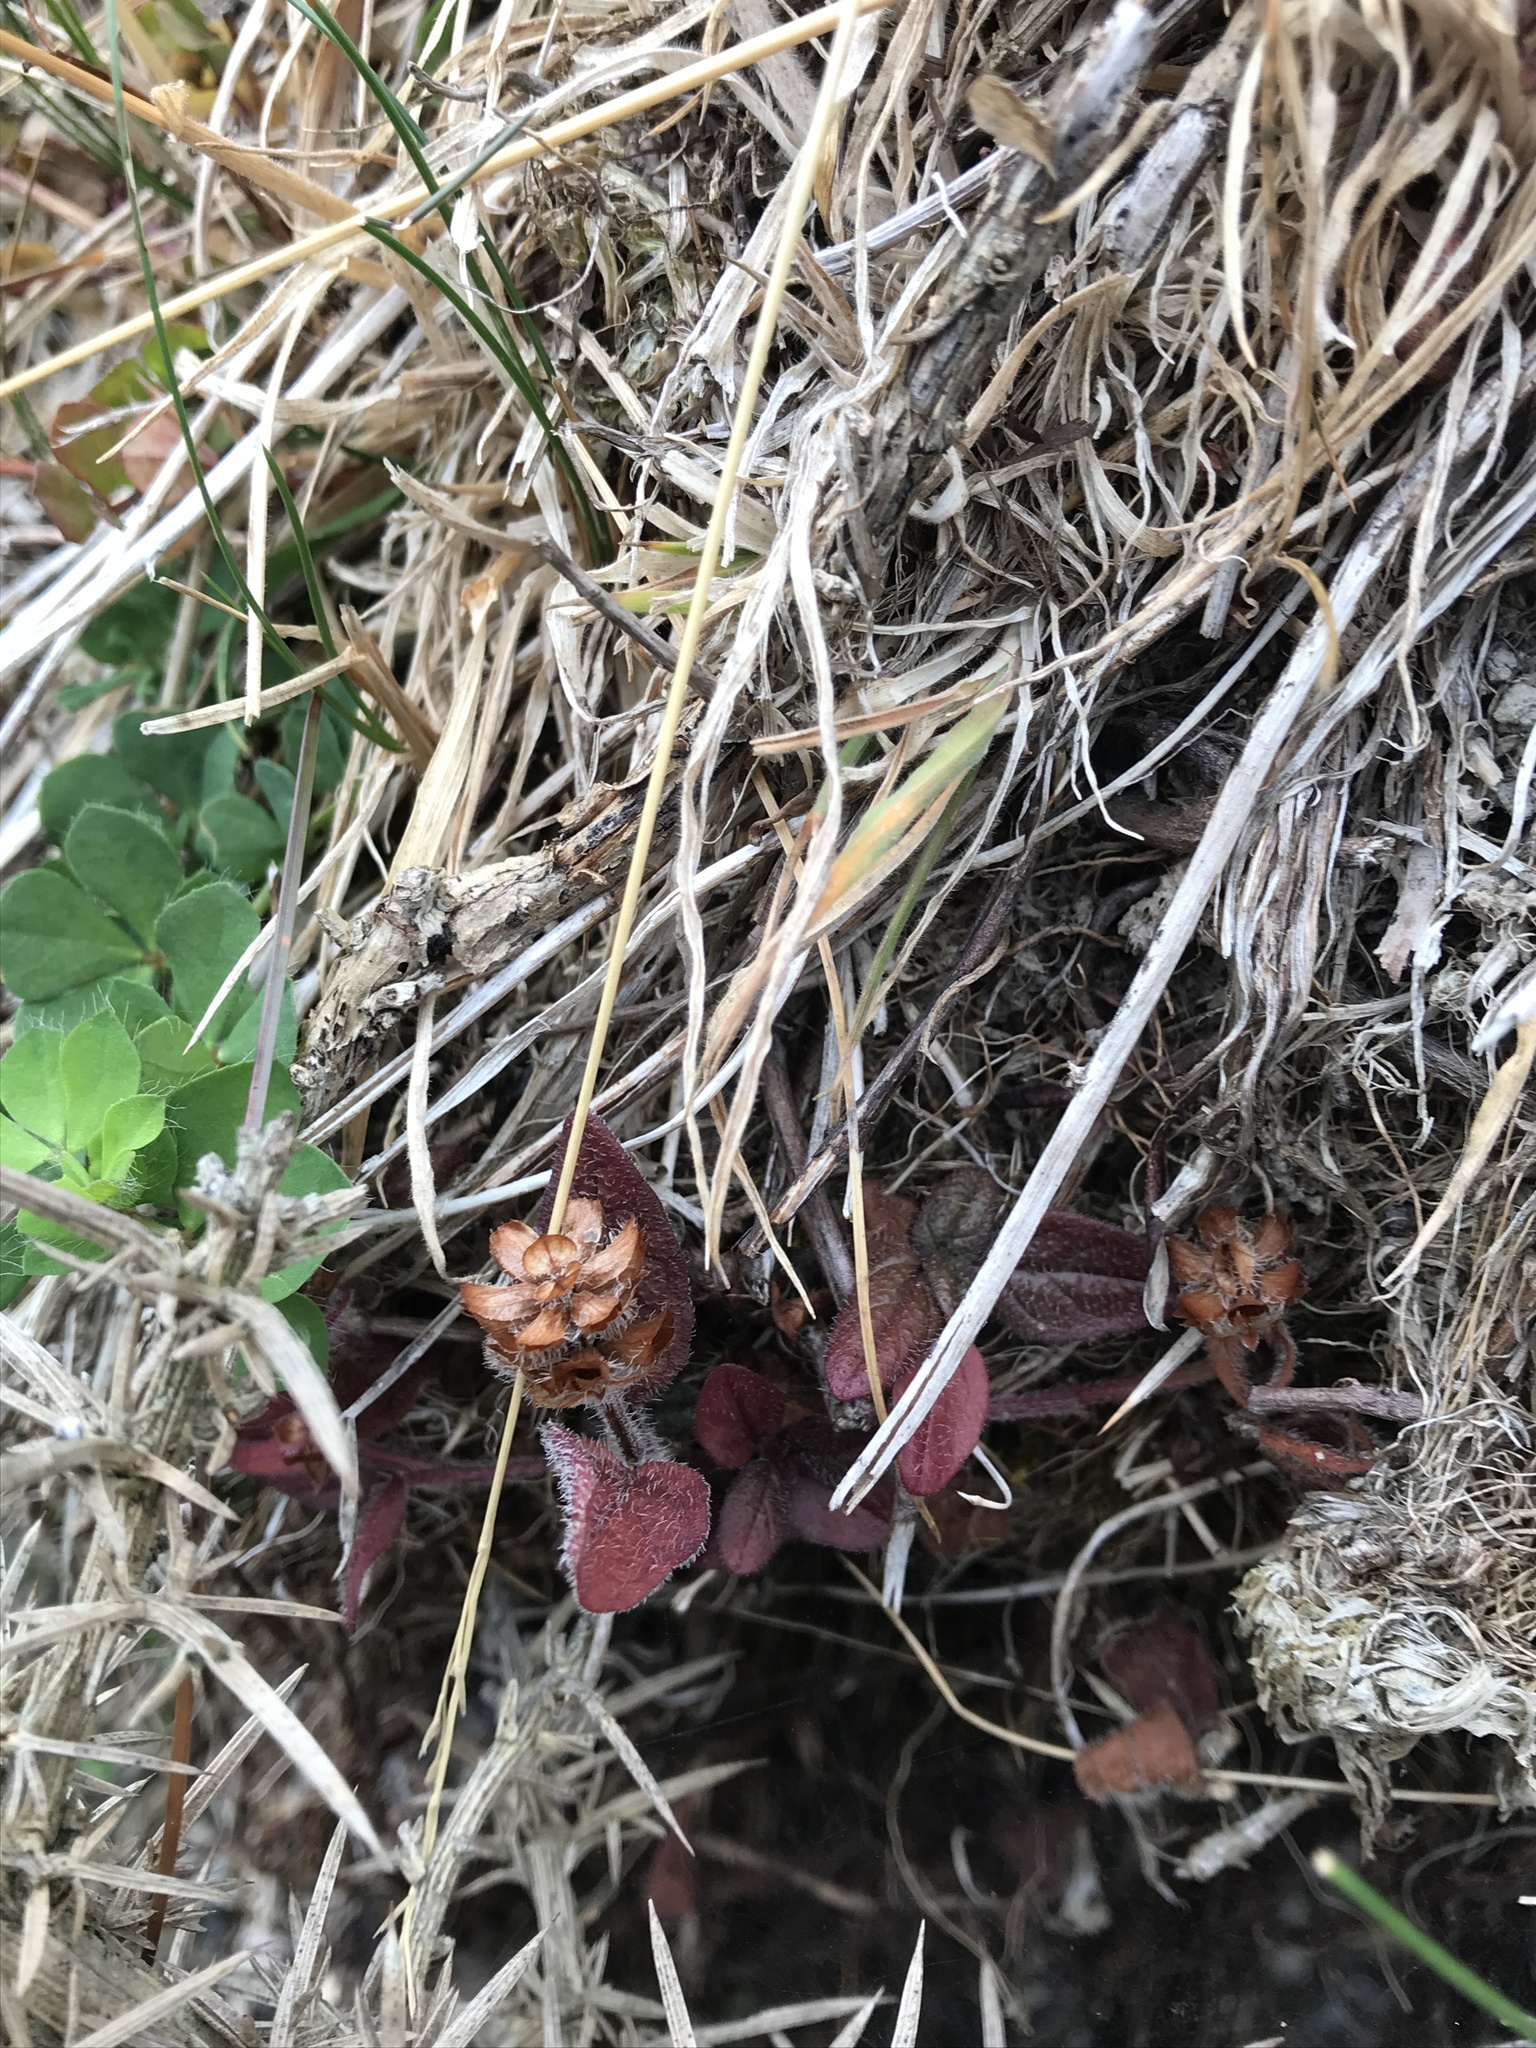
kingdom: Plantae
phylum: Tracheophyta
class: Magnoliopsida
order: Lamiales
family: Lamiaceae
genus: Prunella
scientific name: Prunella vulgaris
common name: Heal-all
